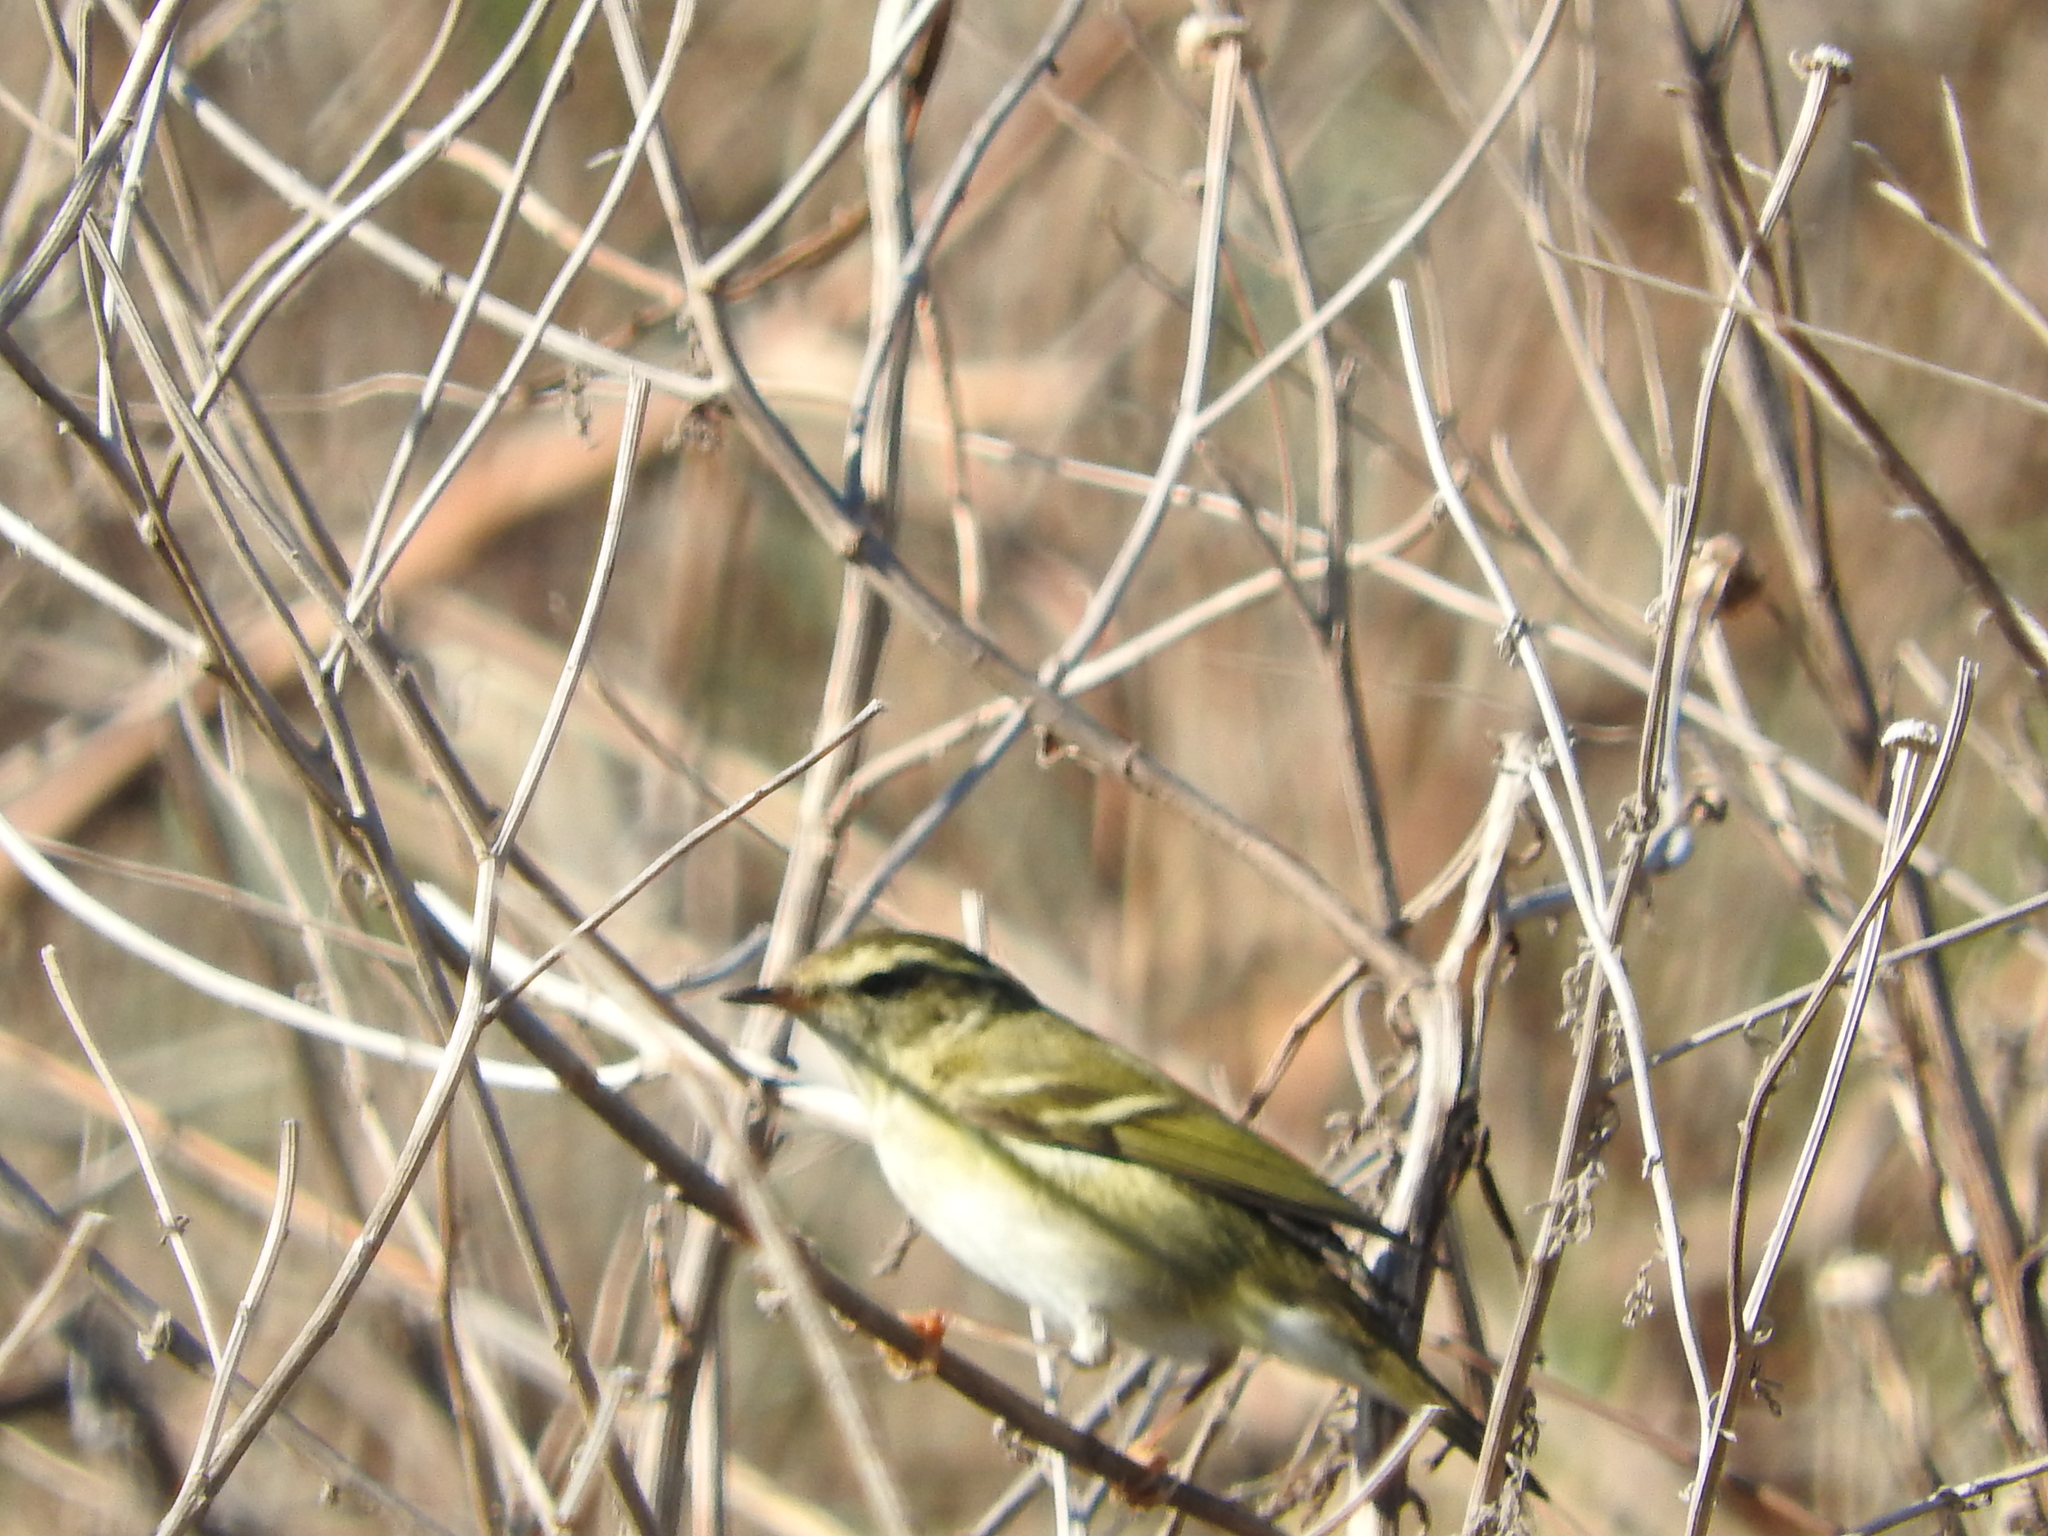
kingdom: Animalia
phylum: Chordata
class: Aves
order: Passeriformes
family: Phylloscopidae
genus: Phylloscopus
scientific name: Phylloscopus inornatus
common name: Yellow-browed warbler
